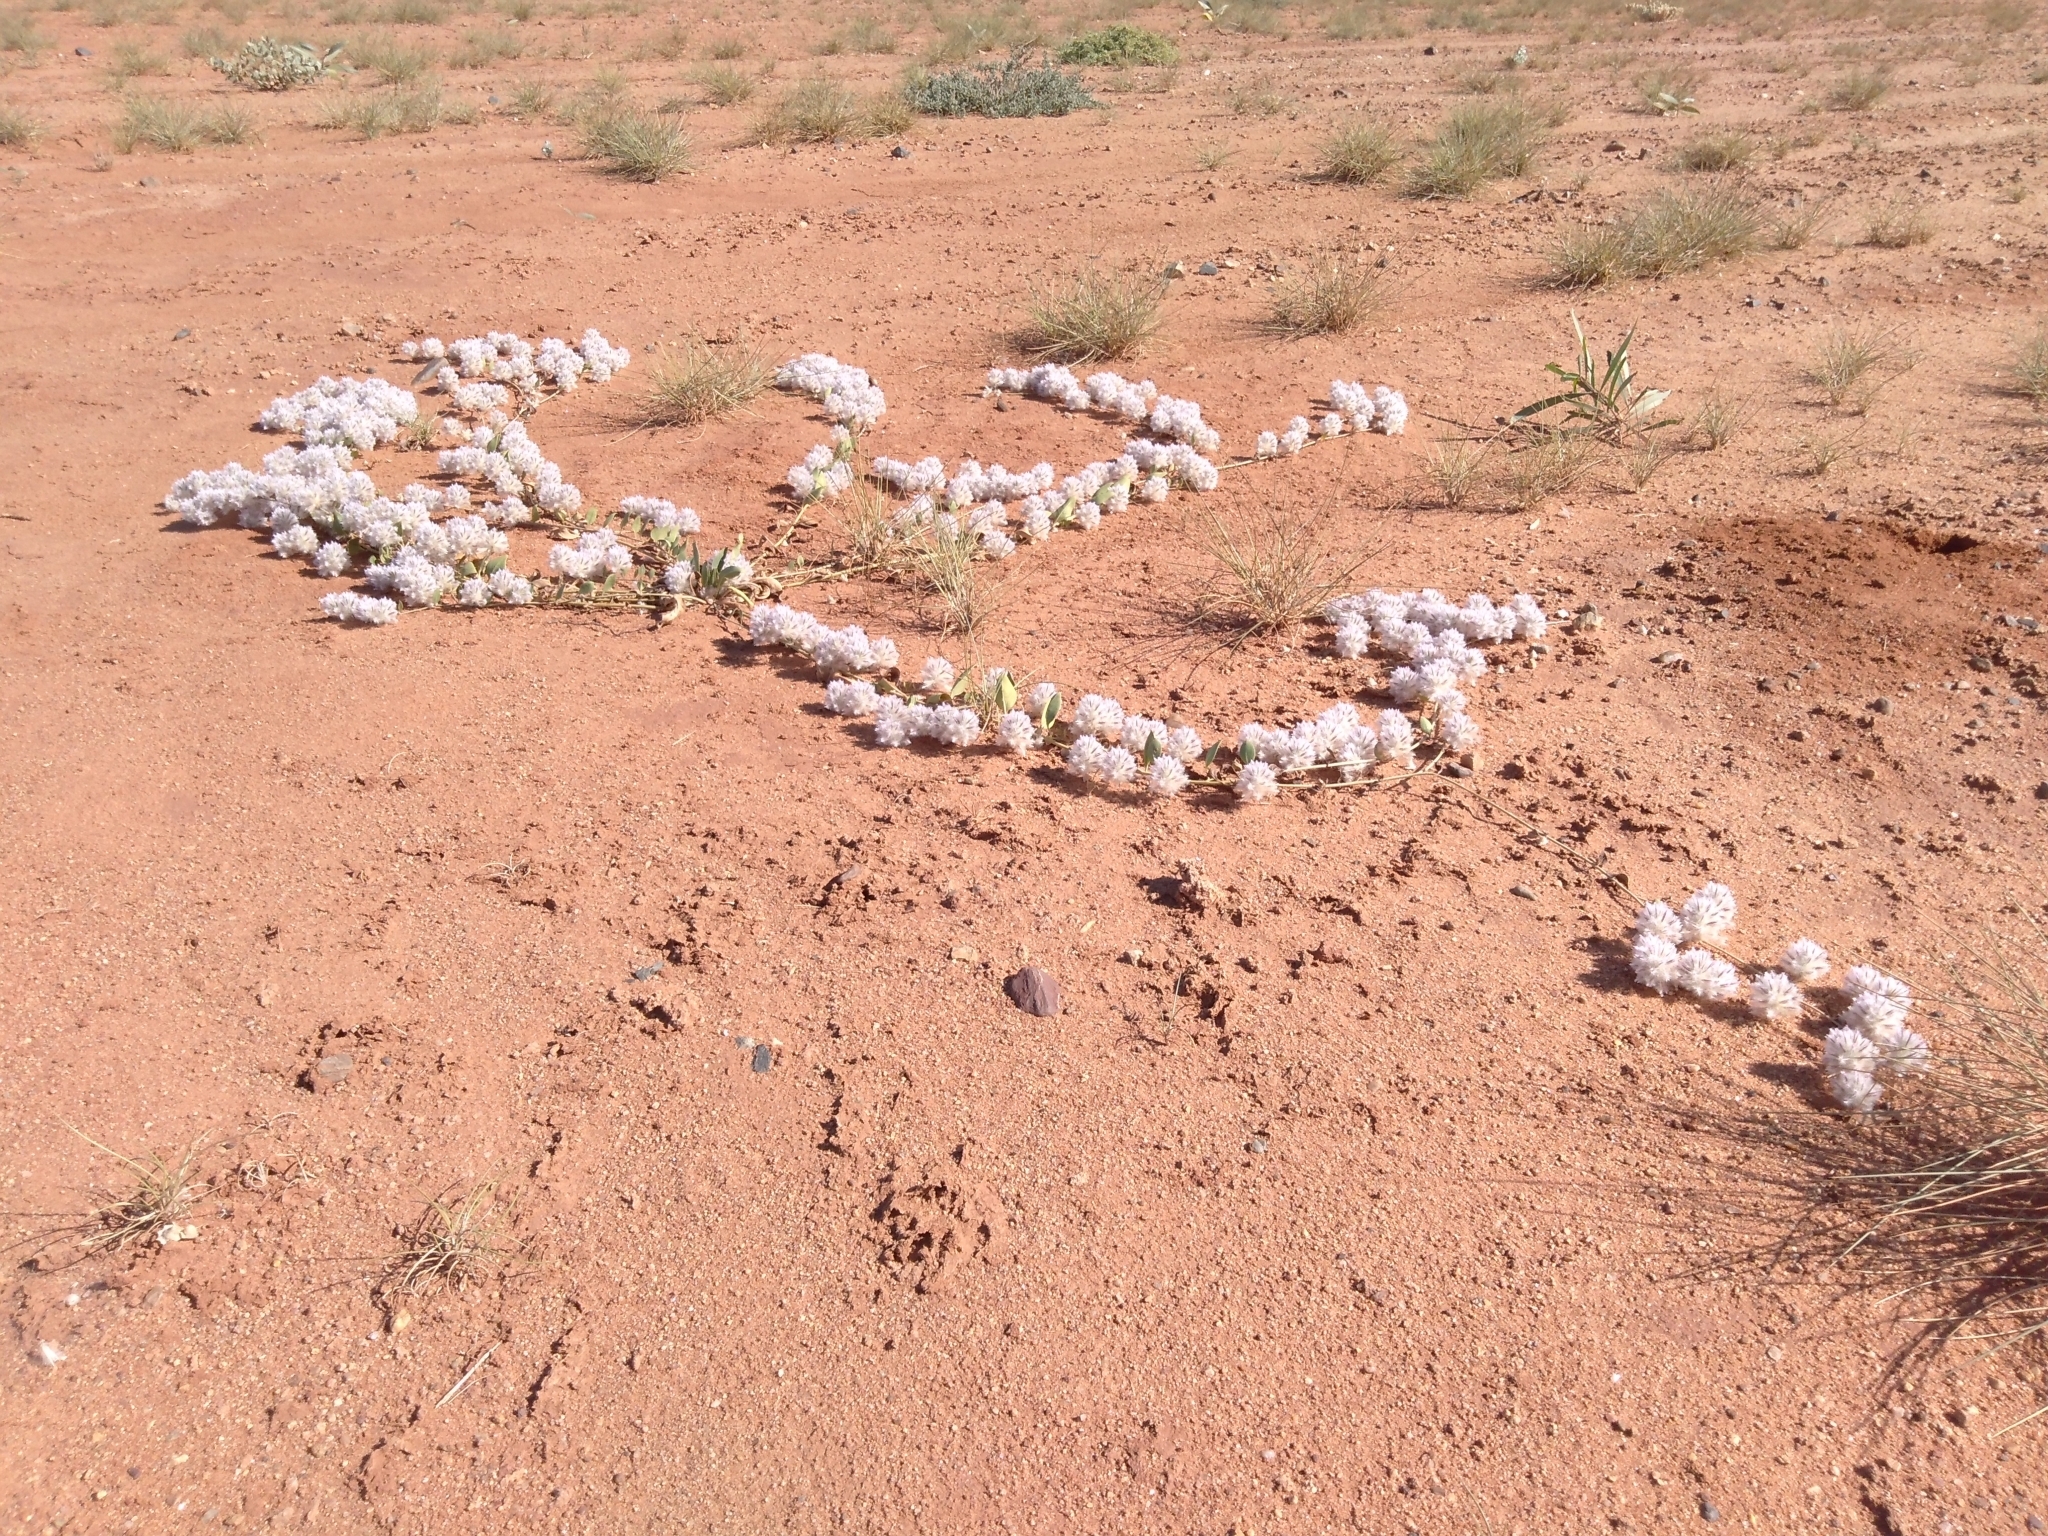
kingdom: Plantae
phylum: Tracheophyta
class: Magnoliopsida
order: Caryophyllales
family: Amaranthaceae
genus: Ptilotus
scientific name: Ptilotus axillaris
